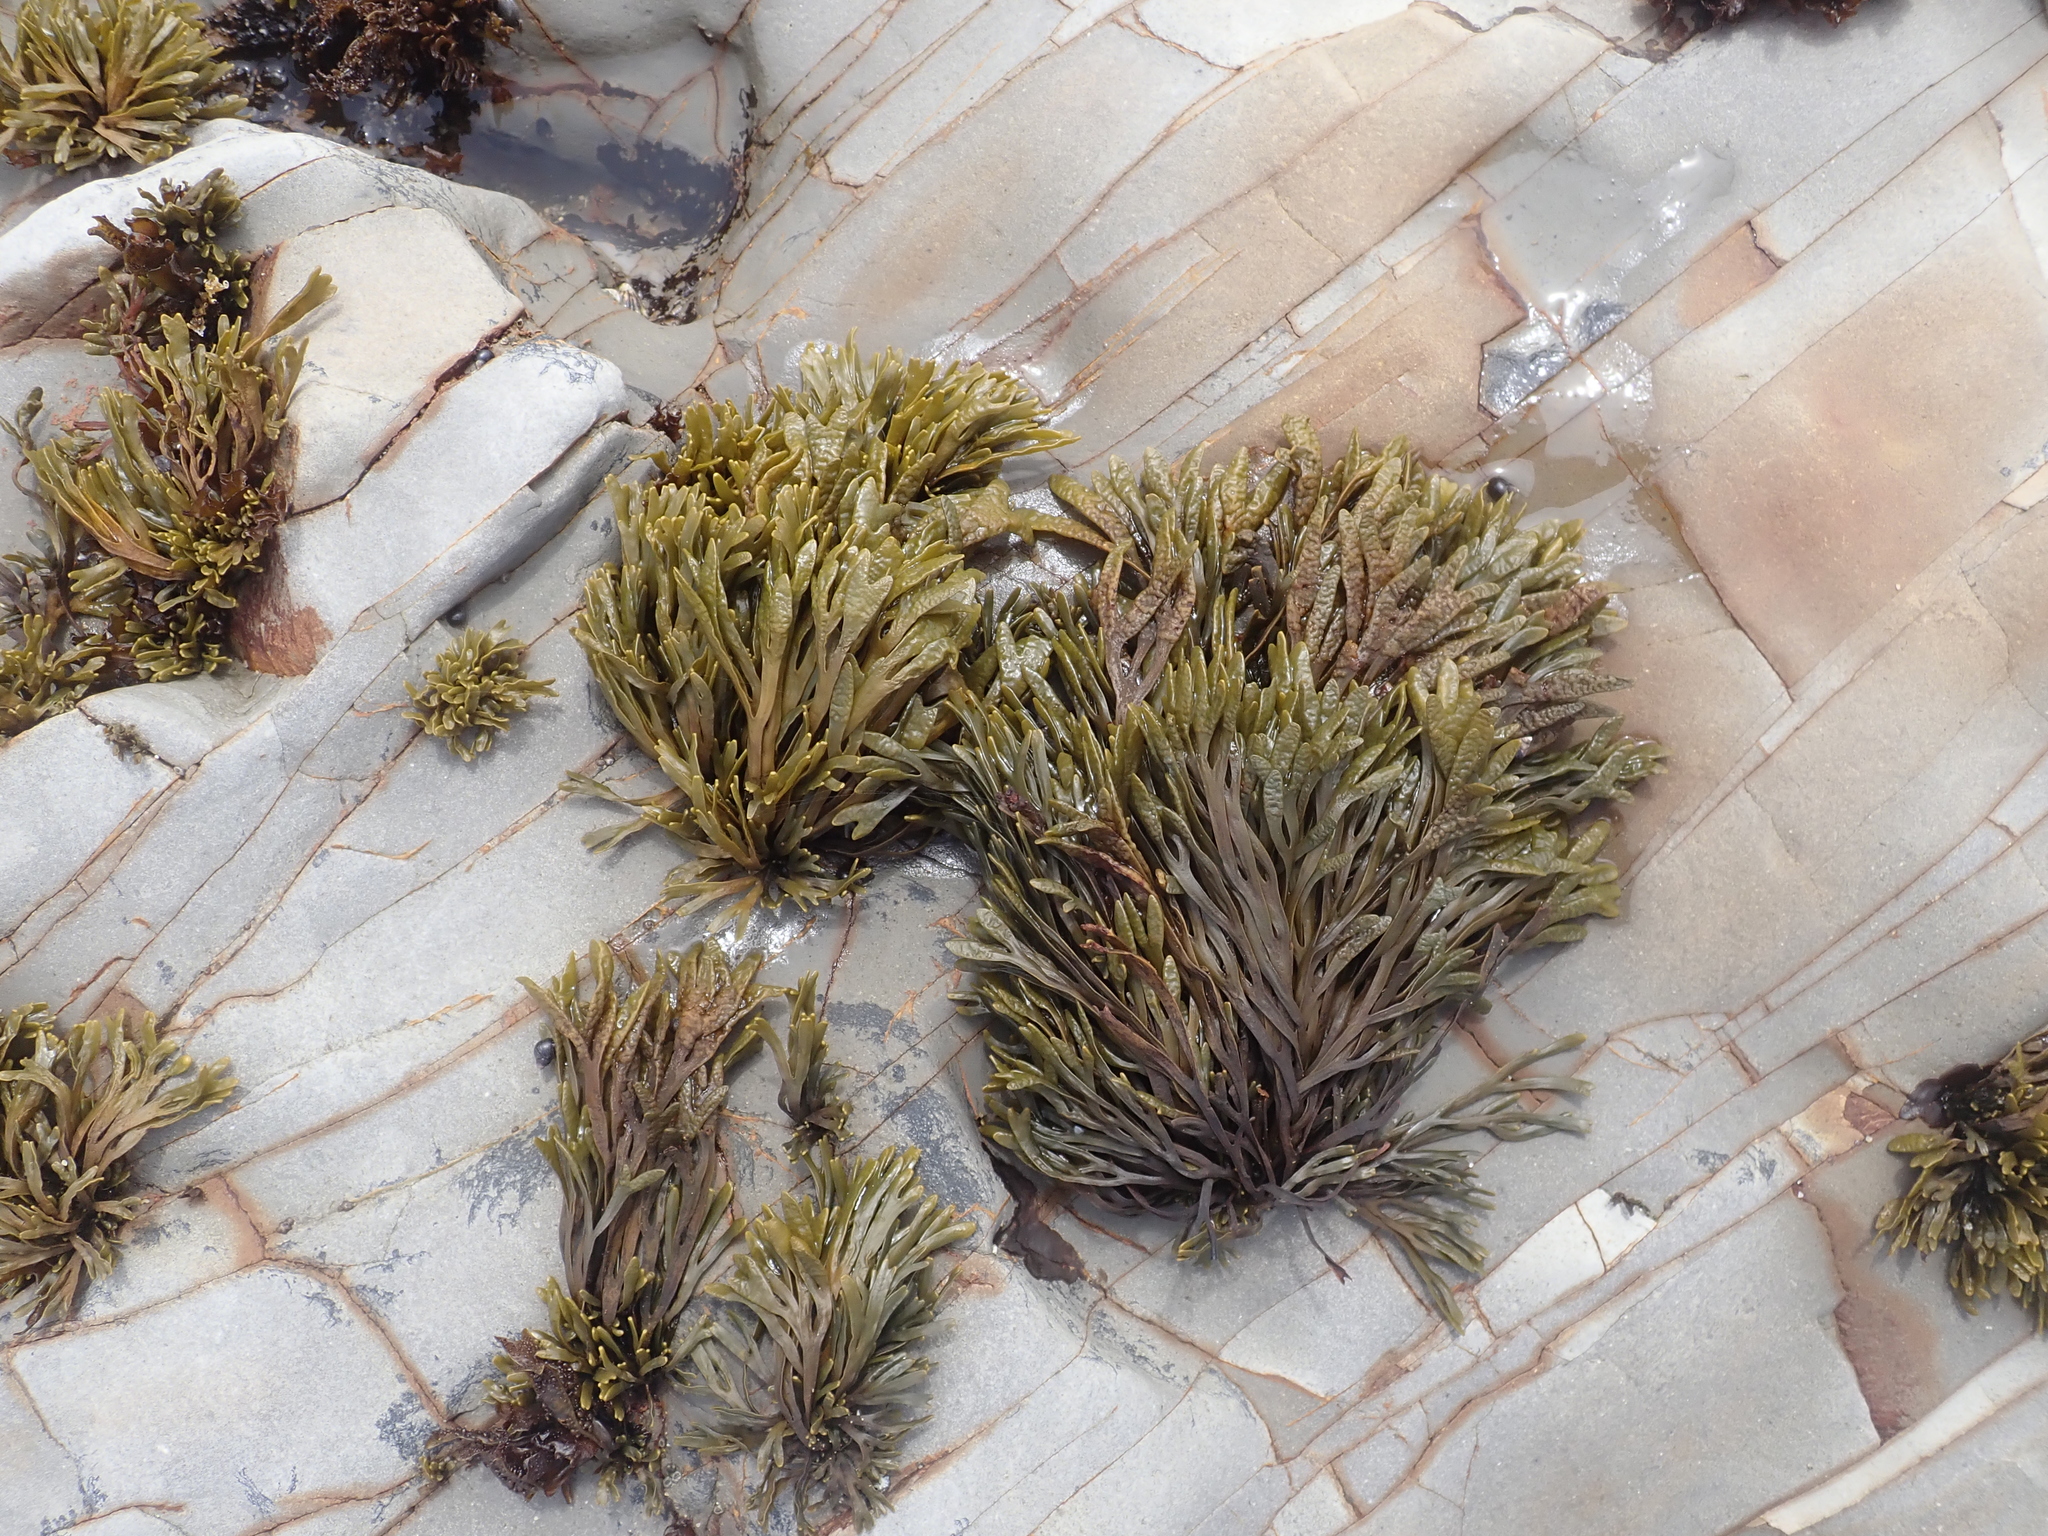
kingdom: Chromista
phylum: Ochrophyta
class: Phaeophyceae
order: Fucales
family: Fucaceae
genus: Pelvetiopsis
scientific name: Pelvetiopsis limitata
